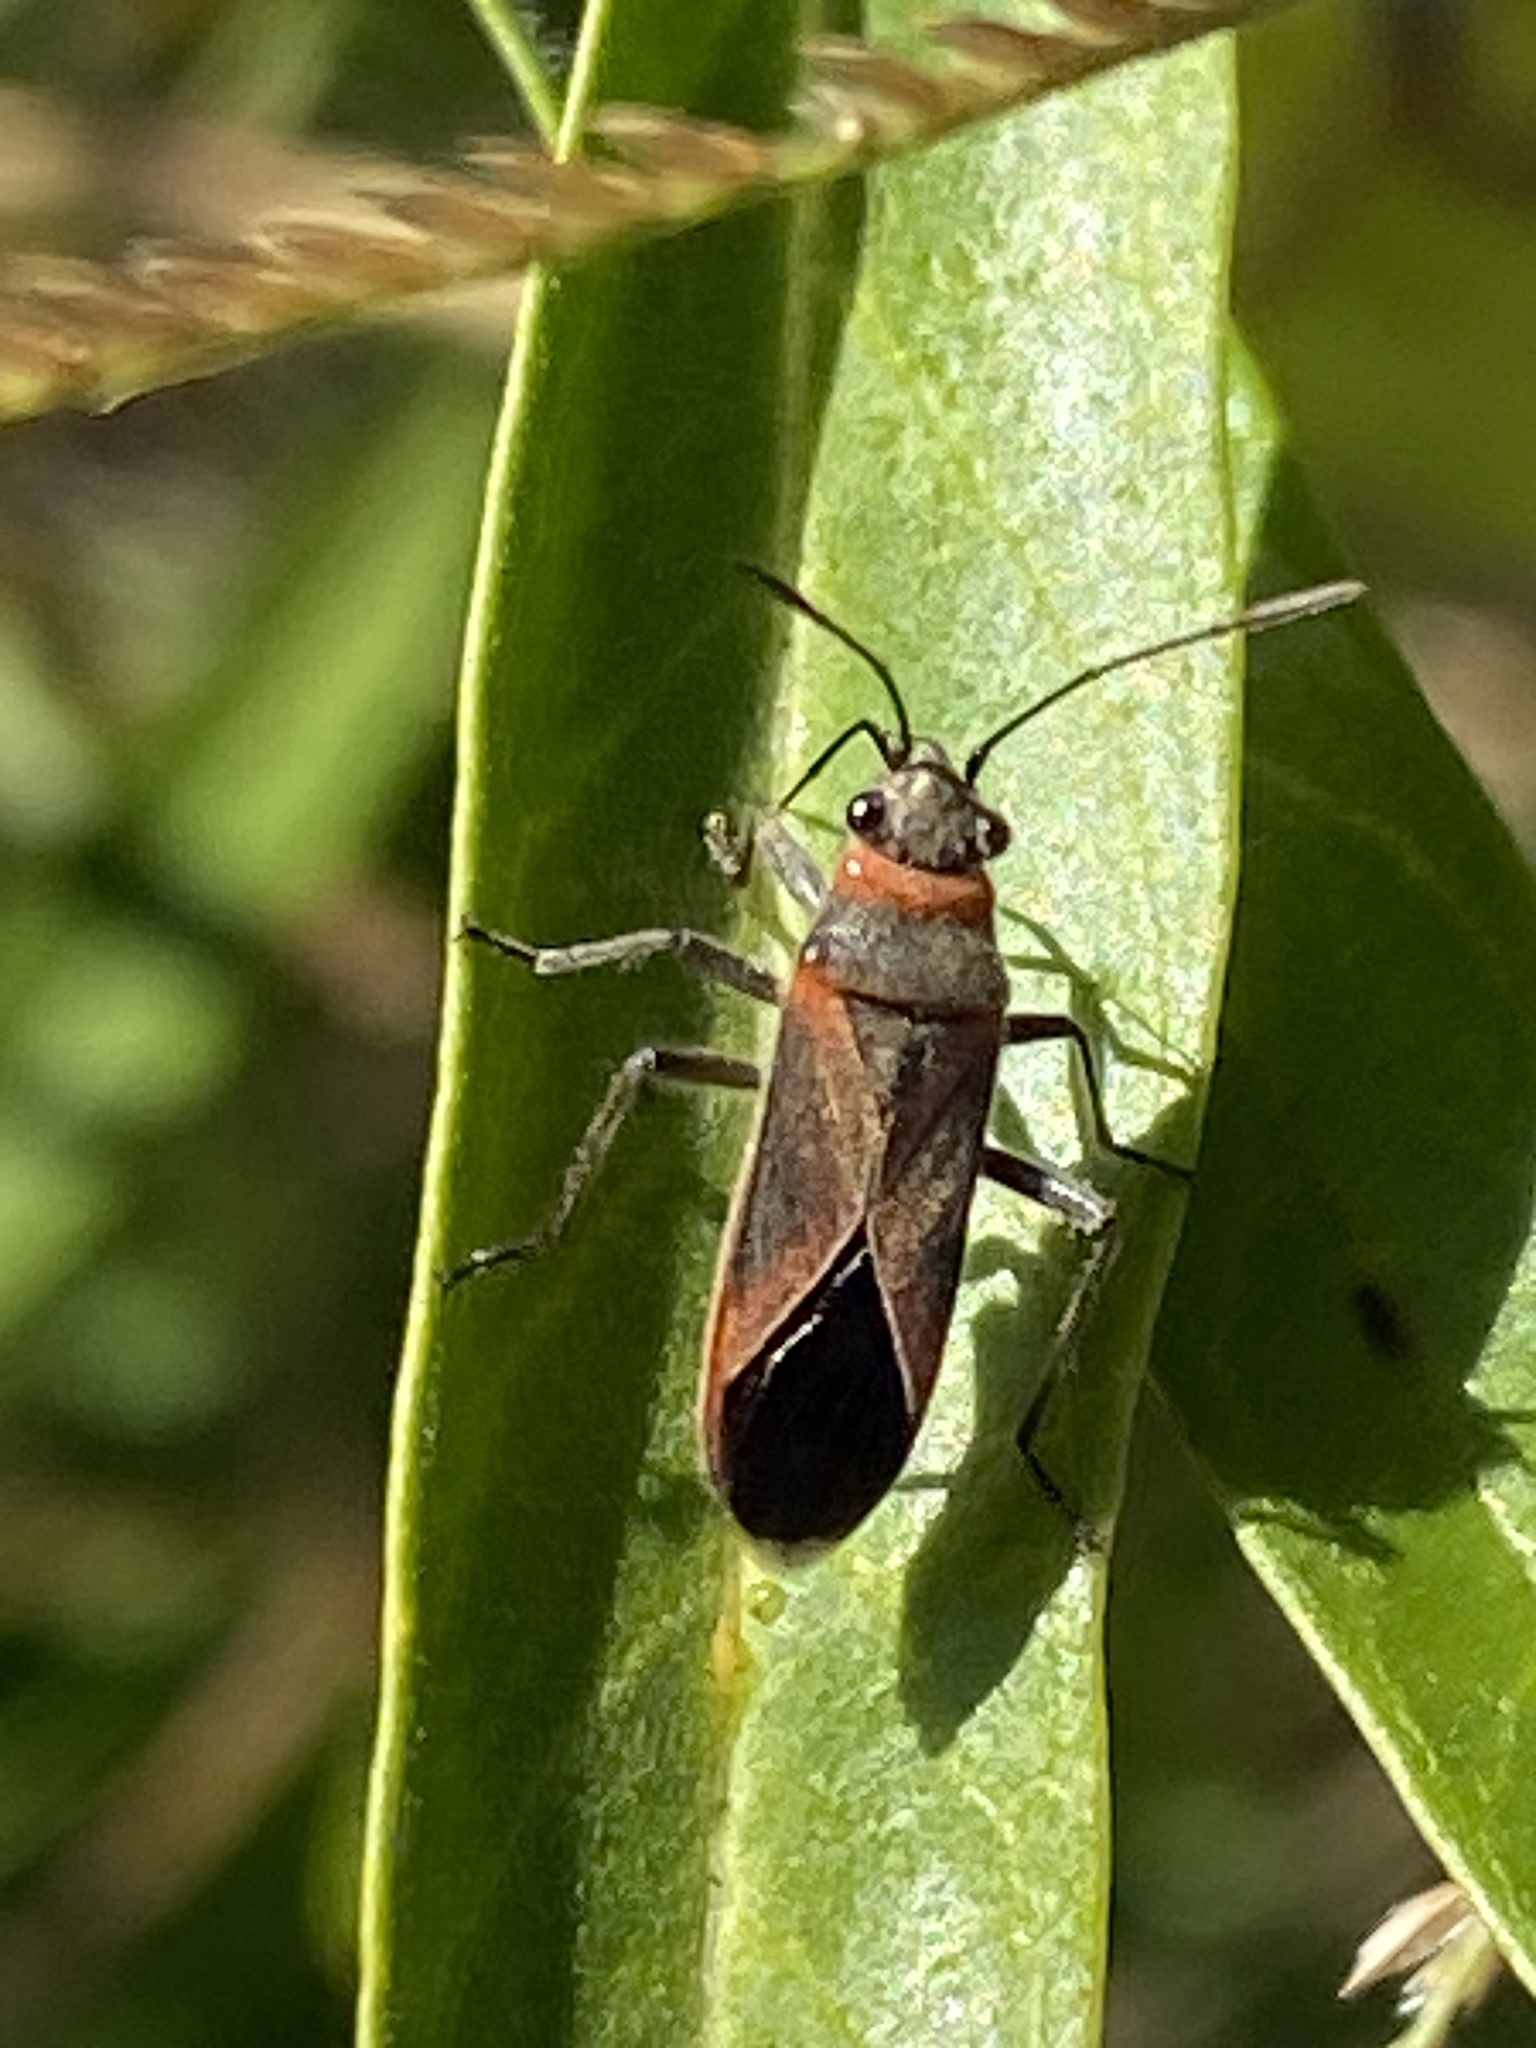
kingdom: Animalia
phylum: Arthropoda
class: Insecta
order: Hemiptera
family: Lygaeidae
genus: Arocatus
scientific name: Arocatus rusticus
